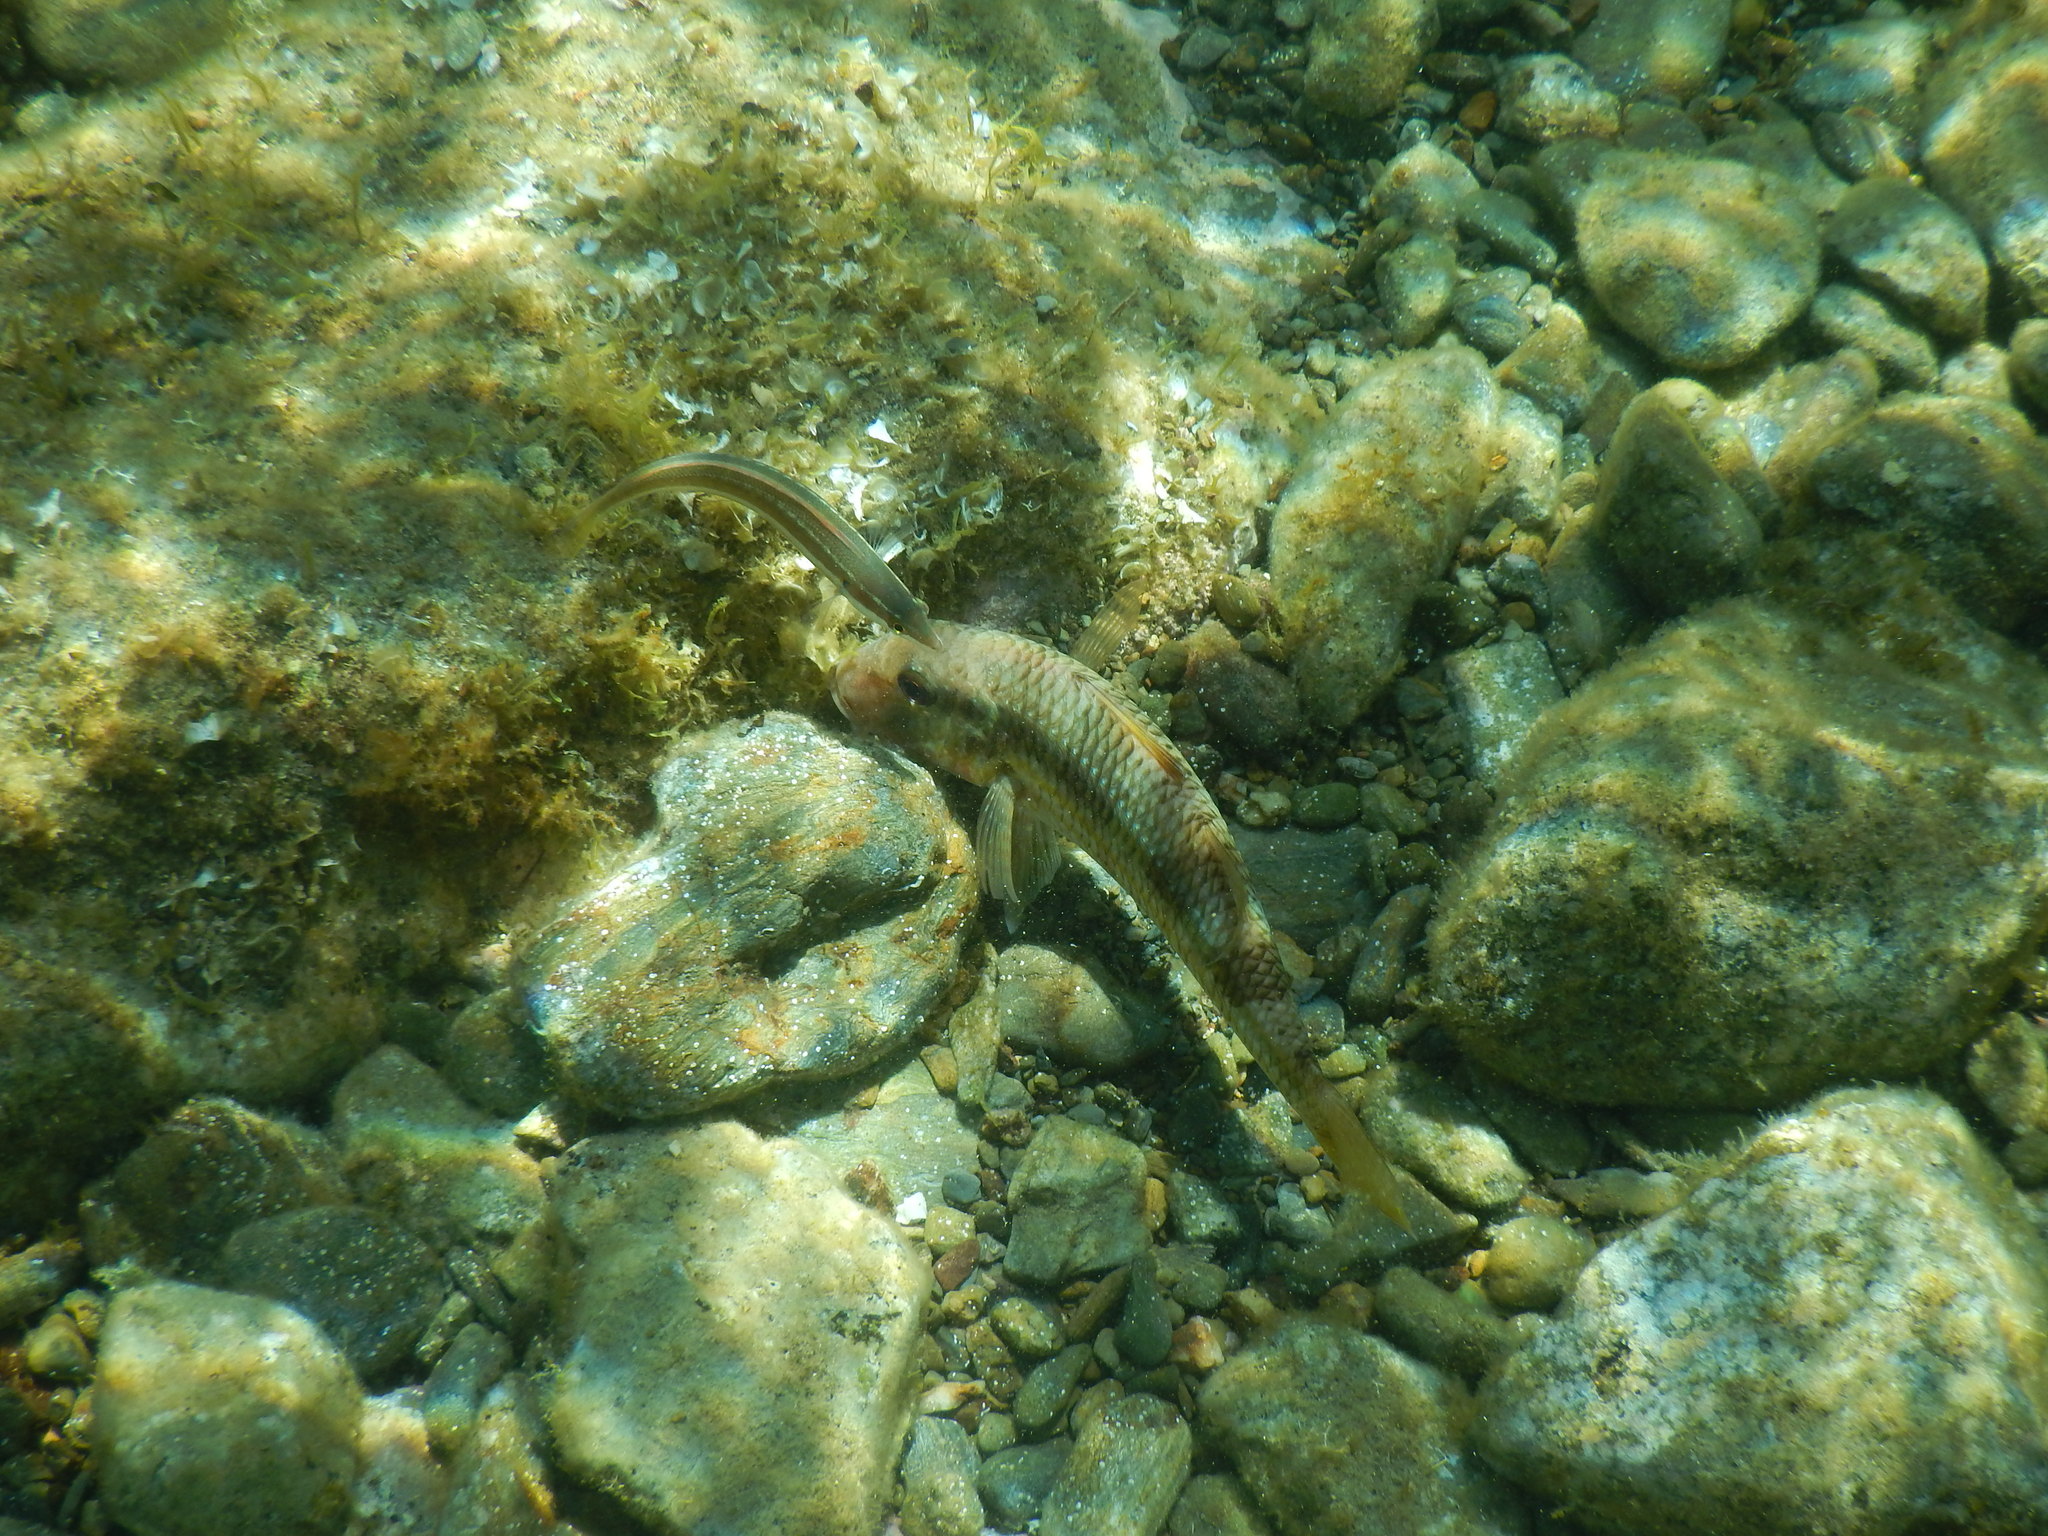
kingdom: Animalia
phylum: Chordata
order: Perciformes
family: Mullidae
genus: Mullus
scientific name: Mullus surmuletus
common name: Red mullet
